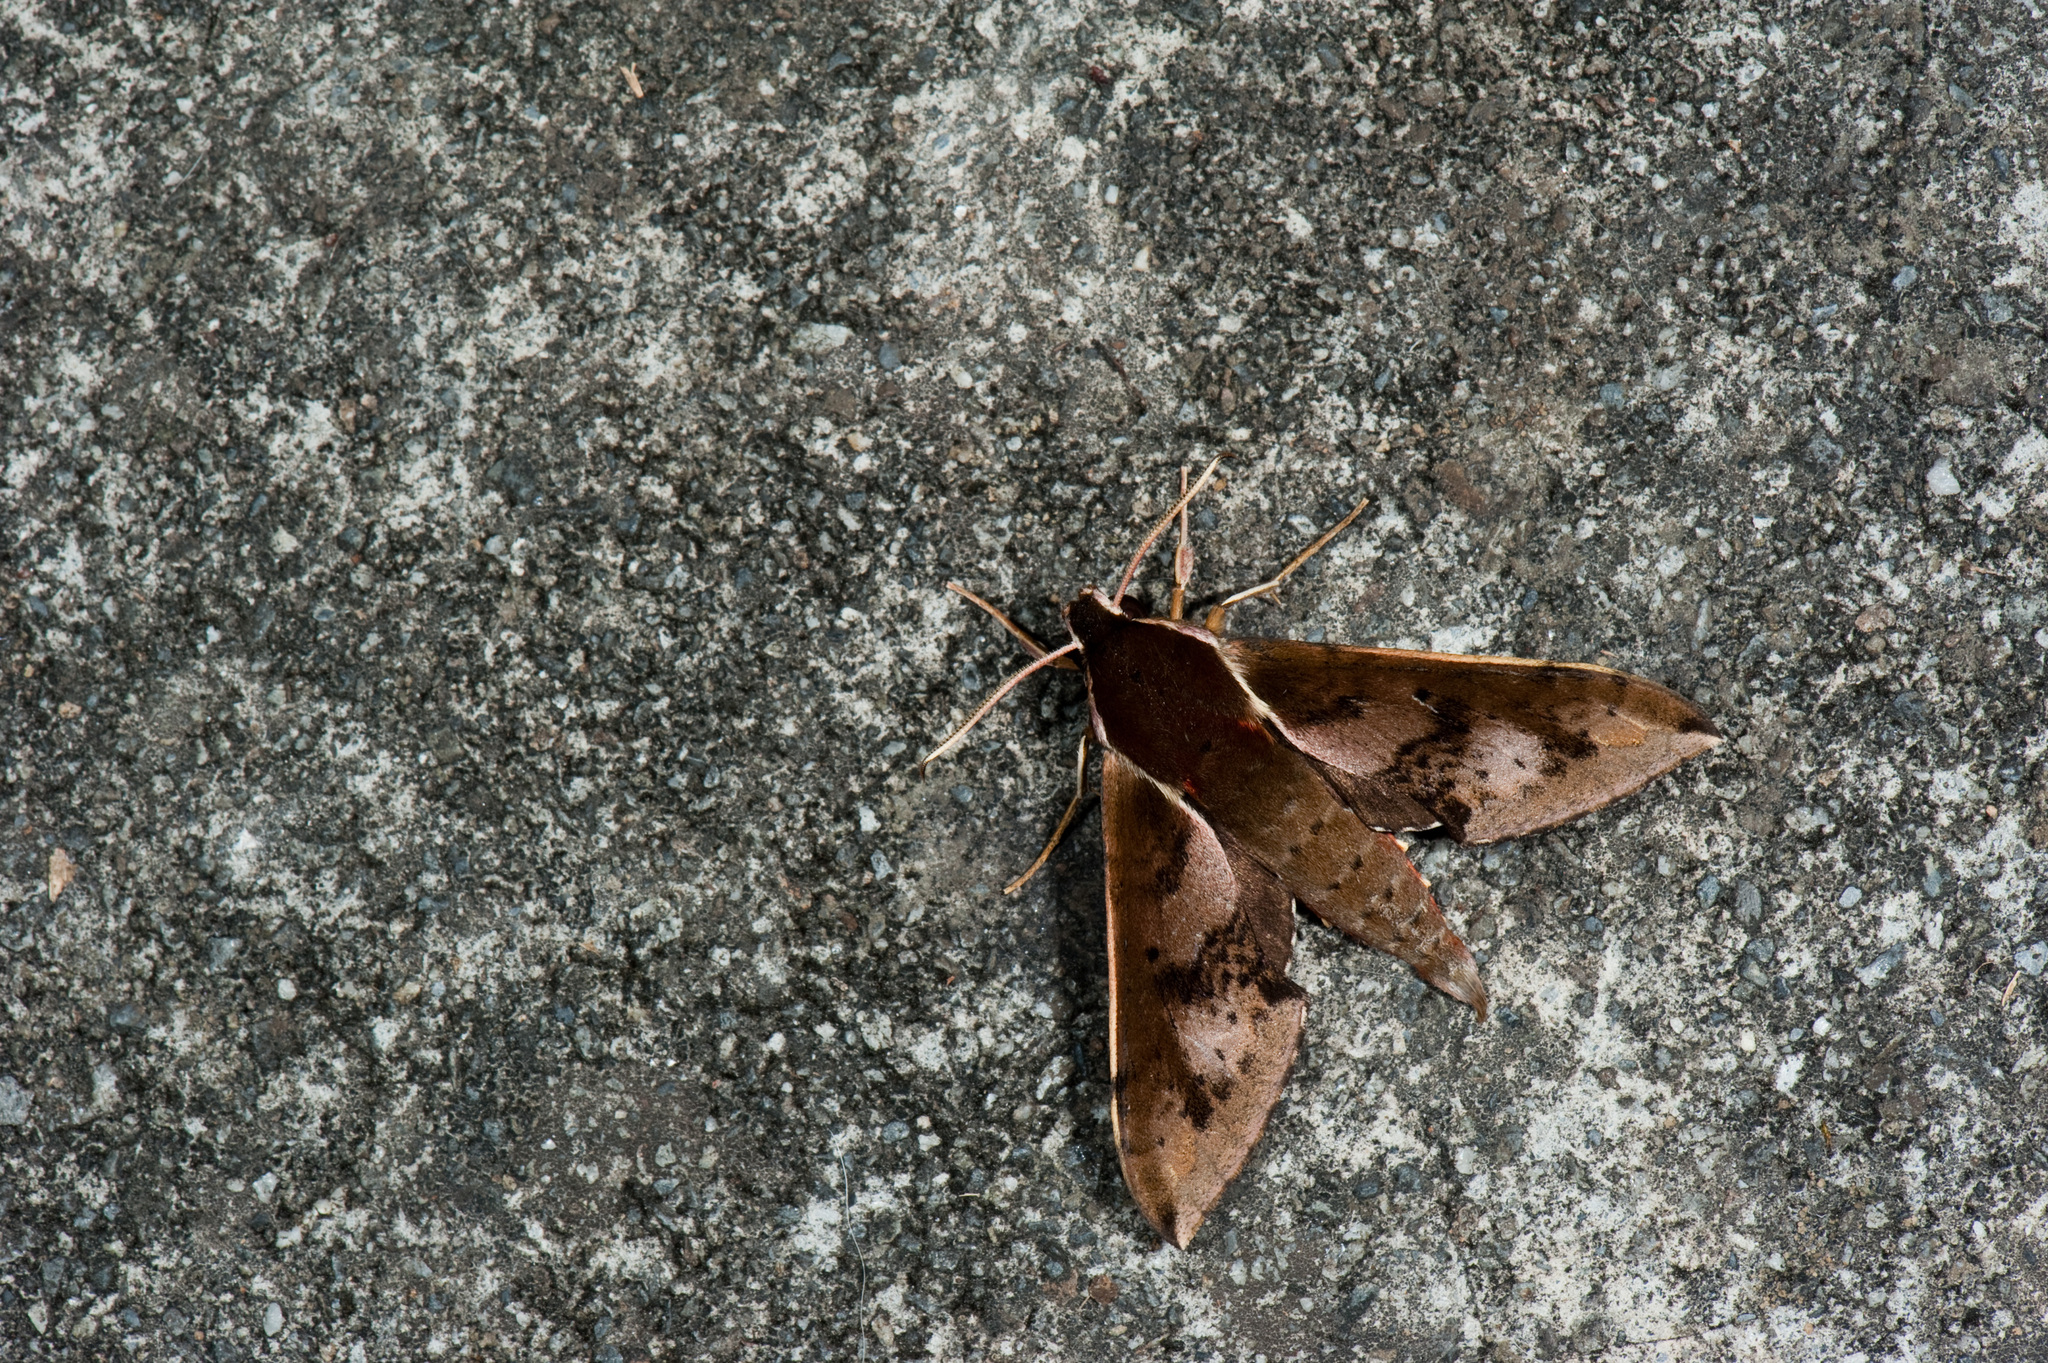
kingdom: Animalia
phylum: Arthropoda
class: Insecta
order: Lepidoptera
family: Sphingidae
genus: Rhagastis
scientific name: Rhagastis binoculata
